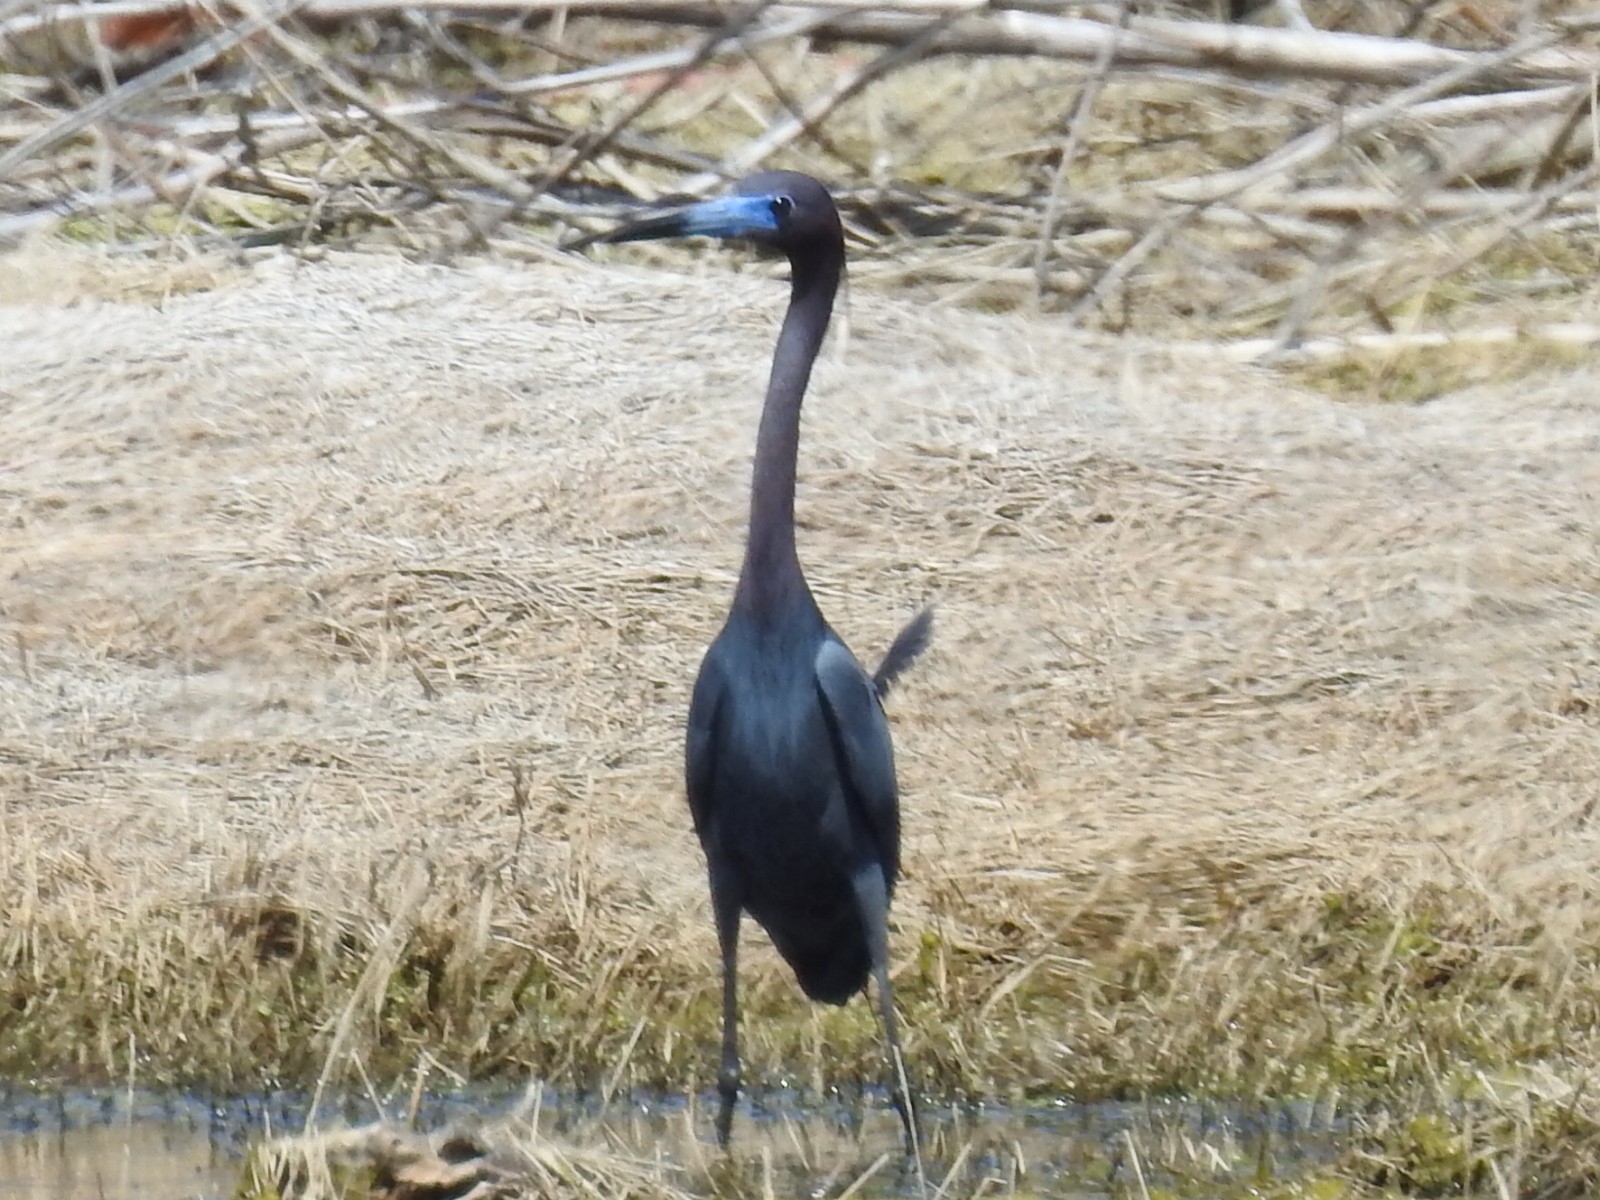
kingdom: Animalia
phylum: Chordata
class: Aves
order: Pelecaniformes
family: Ardeidae
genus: Egretta
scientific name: Egretta caerulea
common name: Little blue heron
